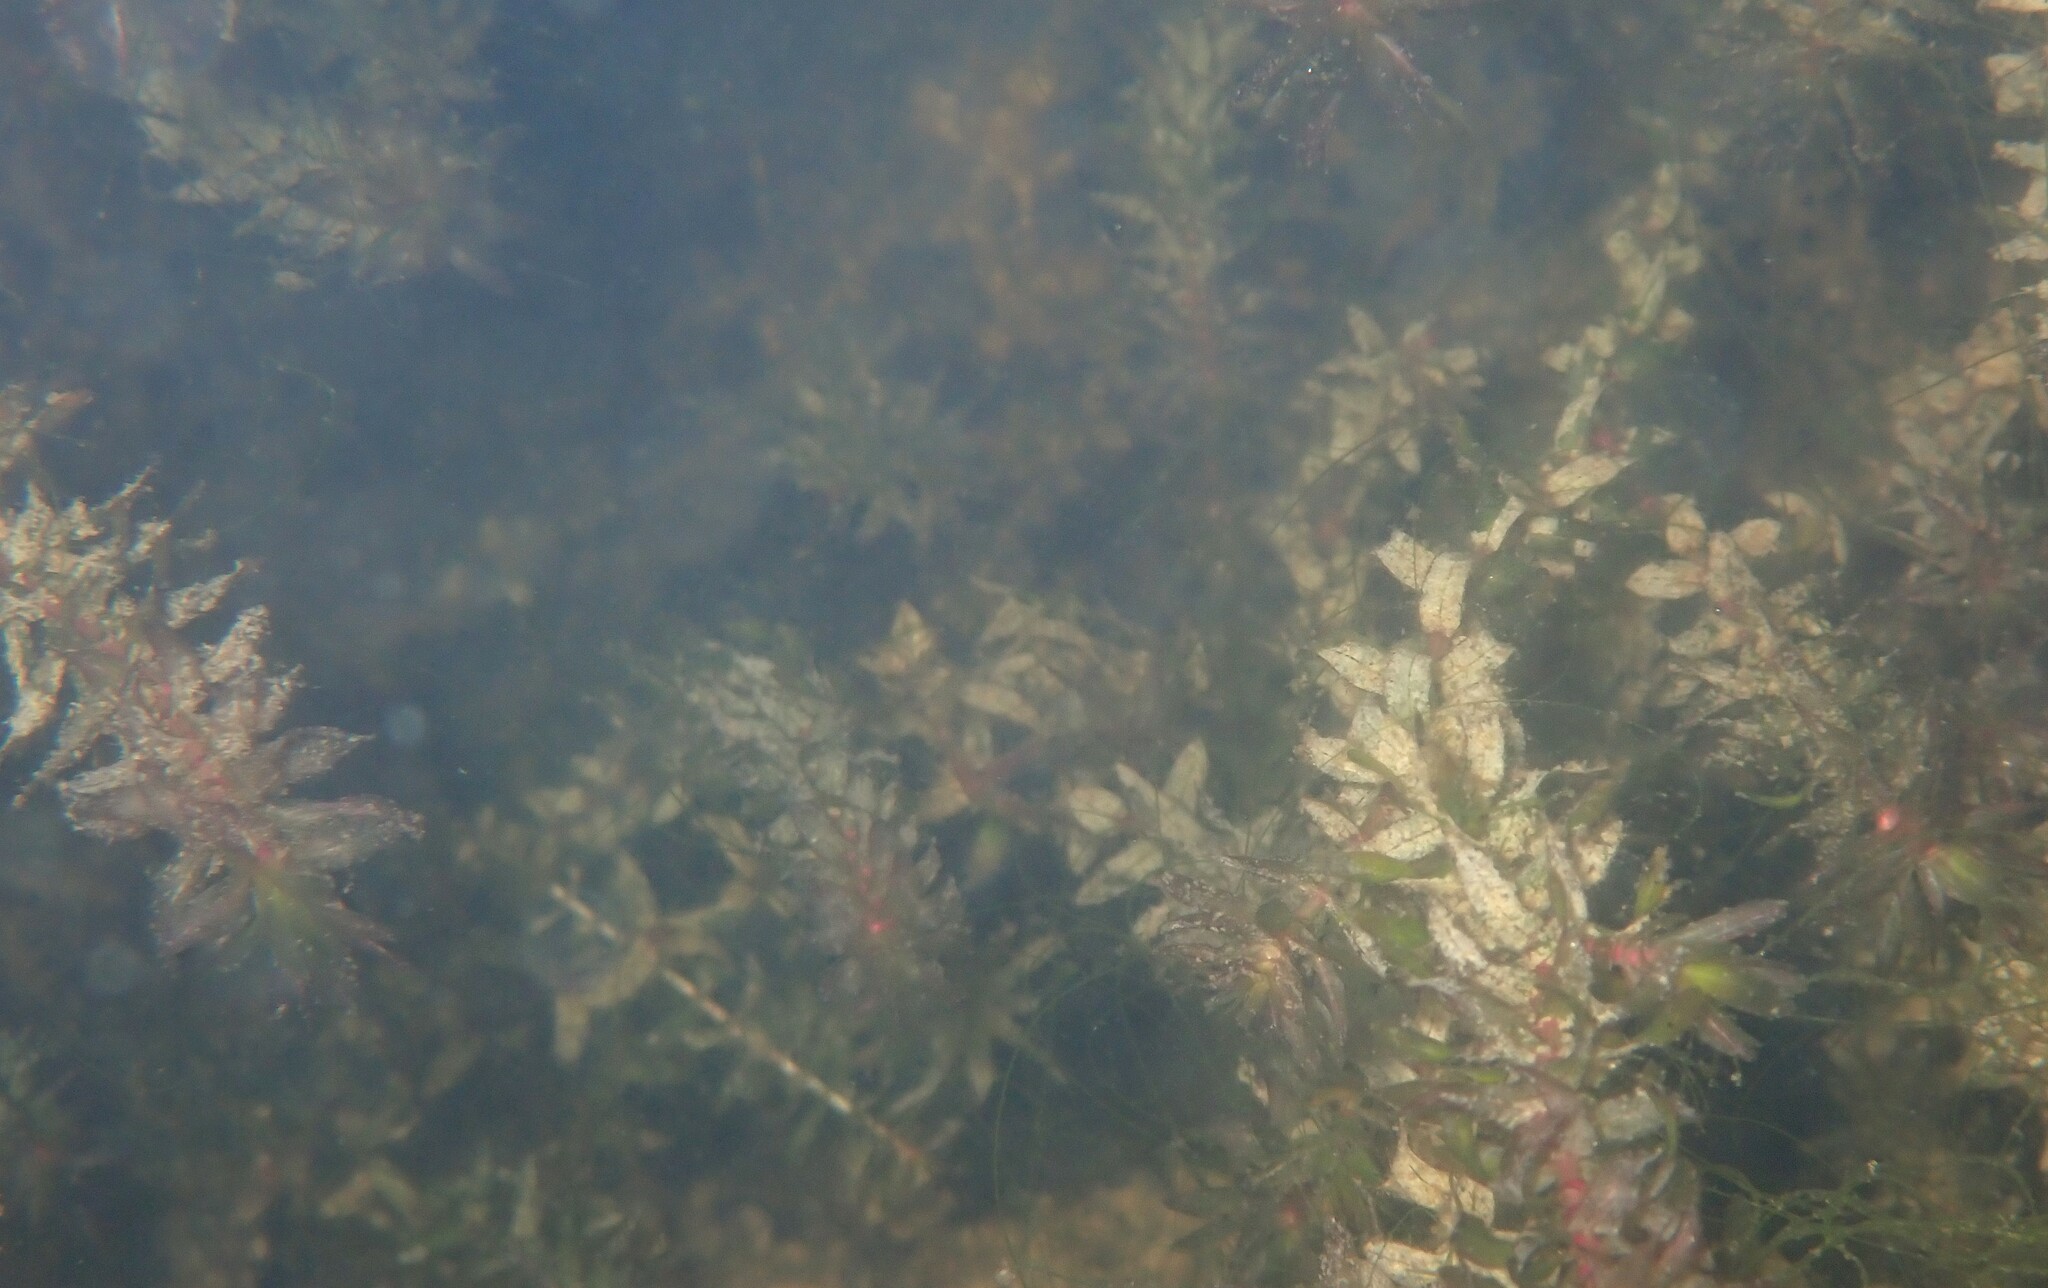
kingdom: Plantae
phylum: Tracheophyta
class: Liliopsida
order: Alismatales
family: Hydrocharitaceae
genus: Elodea
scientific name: Elodea canadensis
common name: Canadian waterweed
